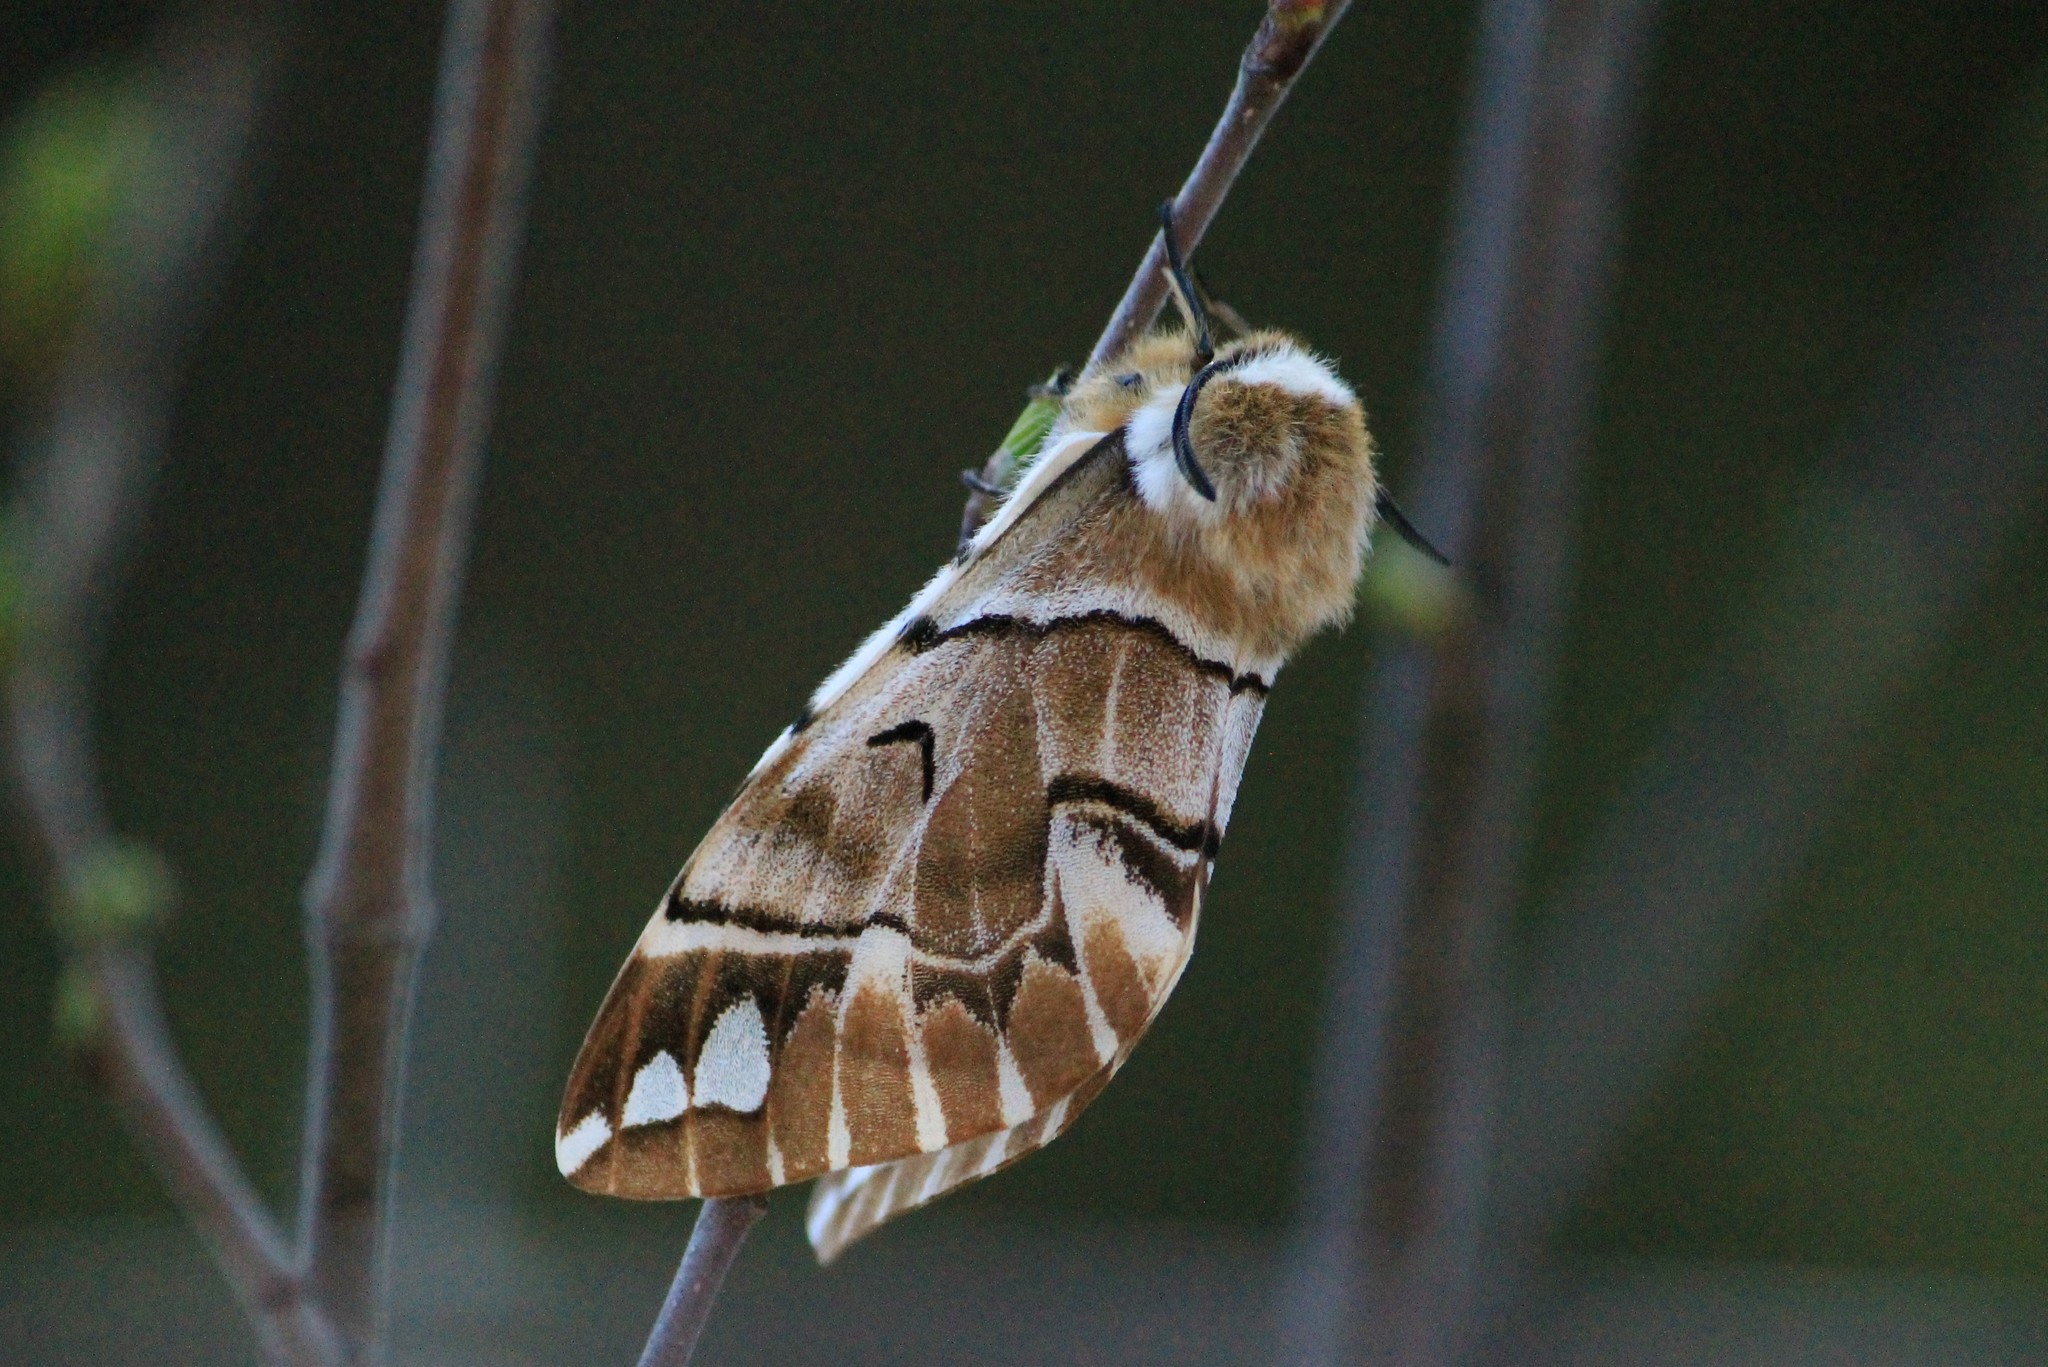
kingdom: Animalia
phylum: Arthropoda
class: Insecta
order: Lepidoptera
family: Endromidae
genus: Endromis
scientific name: Endromis versicolora
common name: Kentish glory
